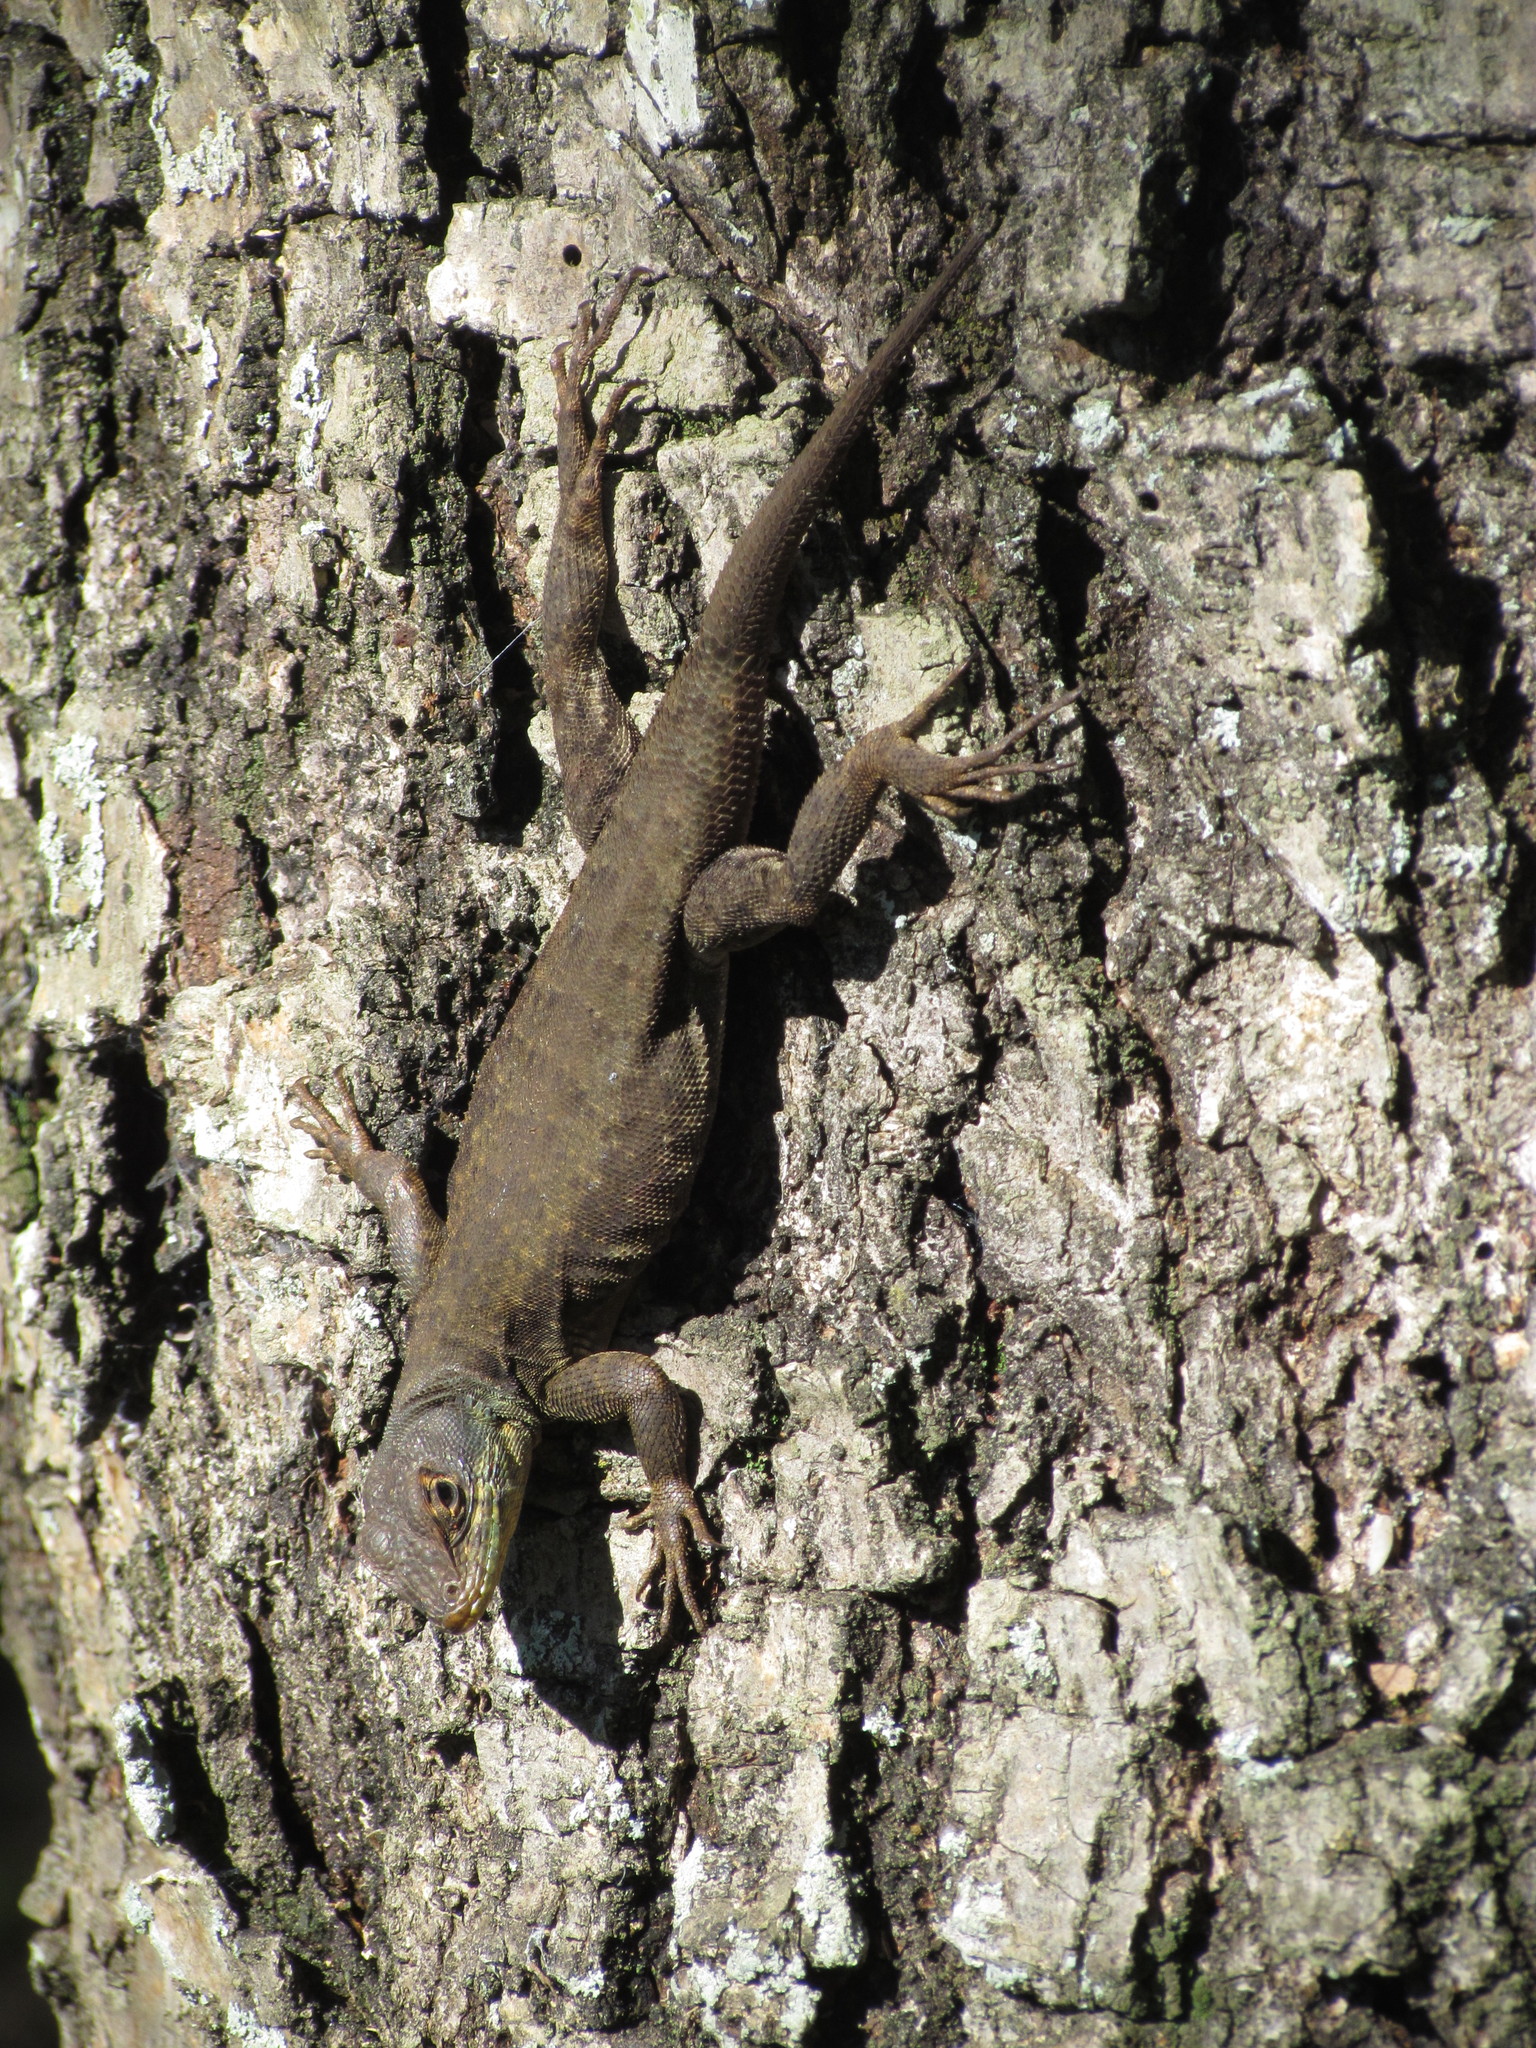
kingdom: Animalia
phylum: Chordata
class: Squamata
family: Tropiduridae
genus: Tropidurus
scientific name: Tropidurus catalanensis
